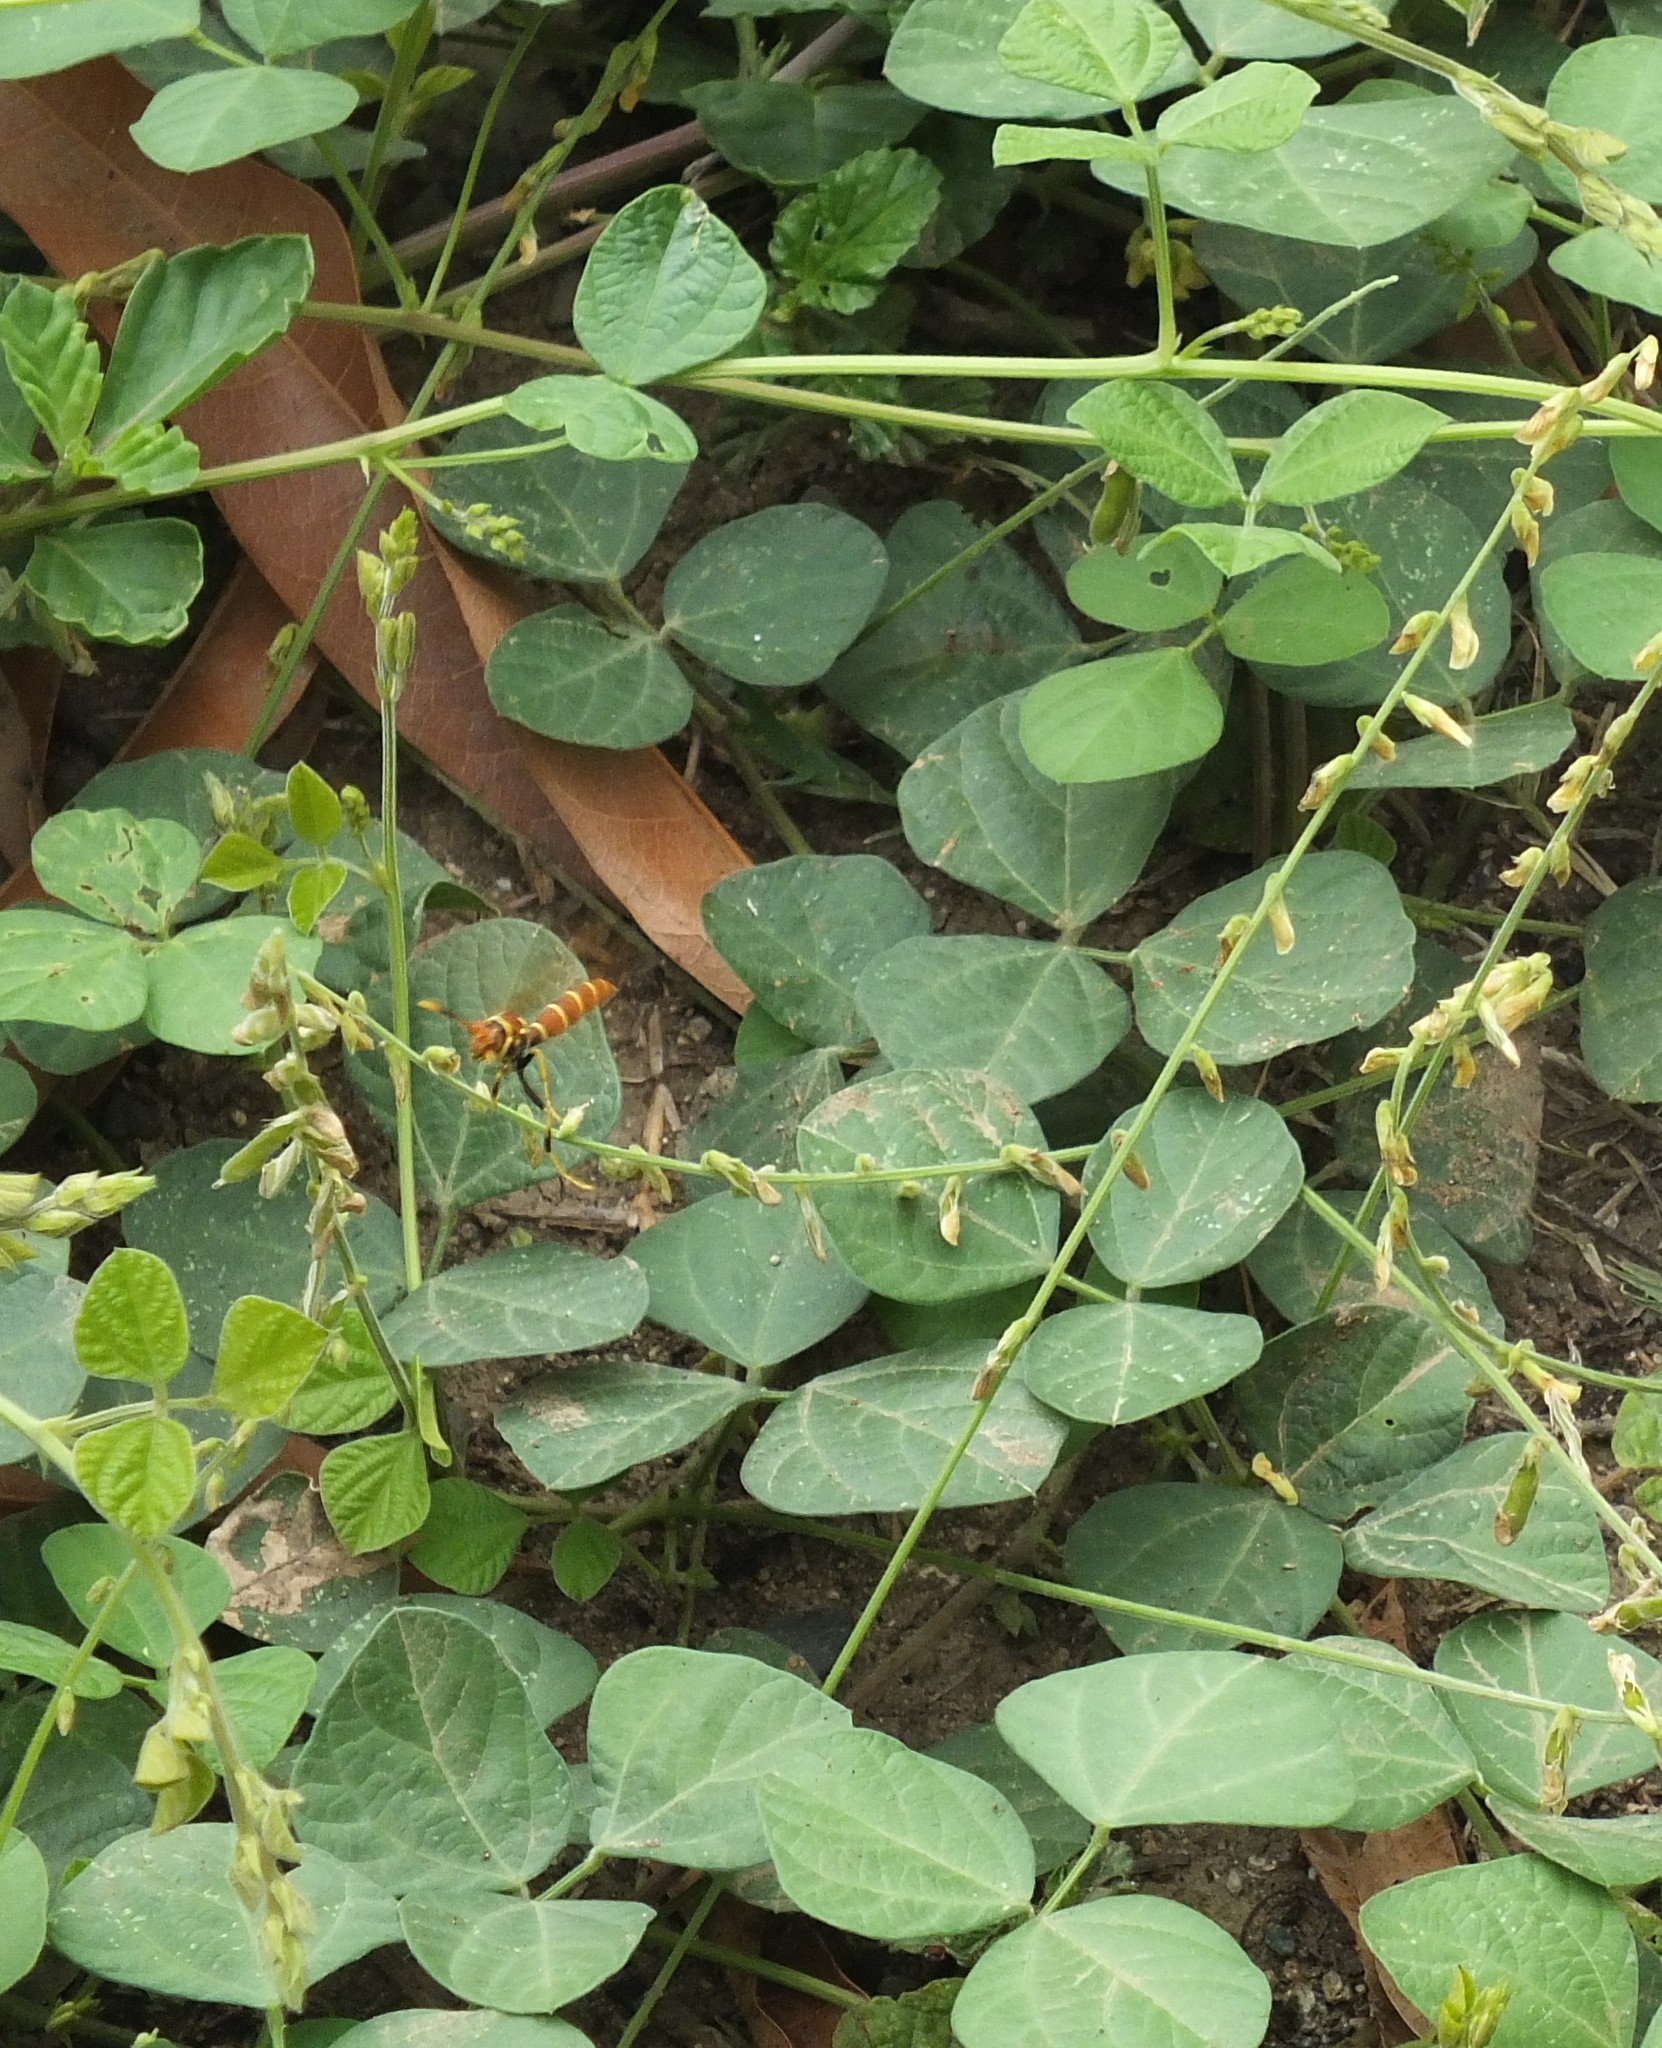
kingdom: Animalia
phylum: Arthropoda
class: Insecta
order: Hymenoptera
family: Eumenidae
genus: Polistes
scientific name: Polistes crinitus
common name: Jack spaniard
